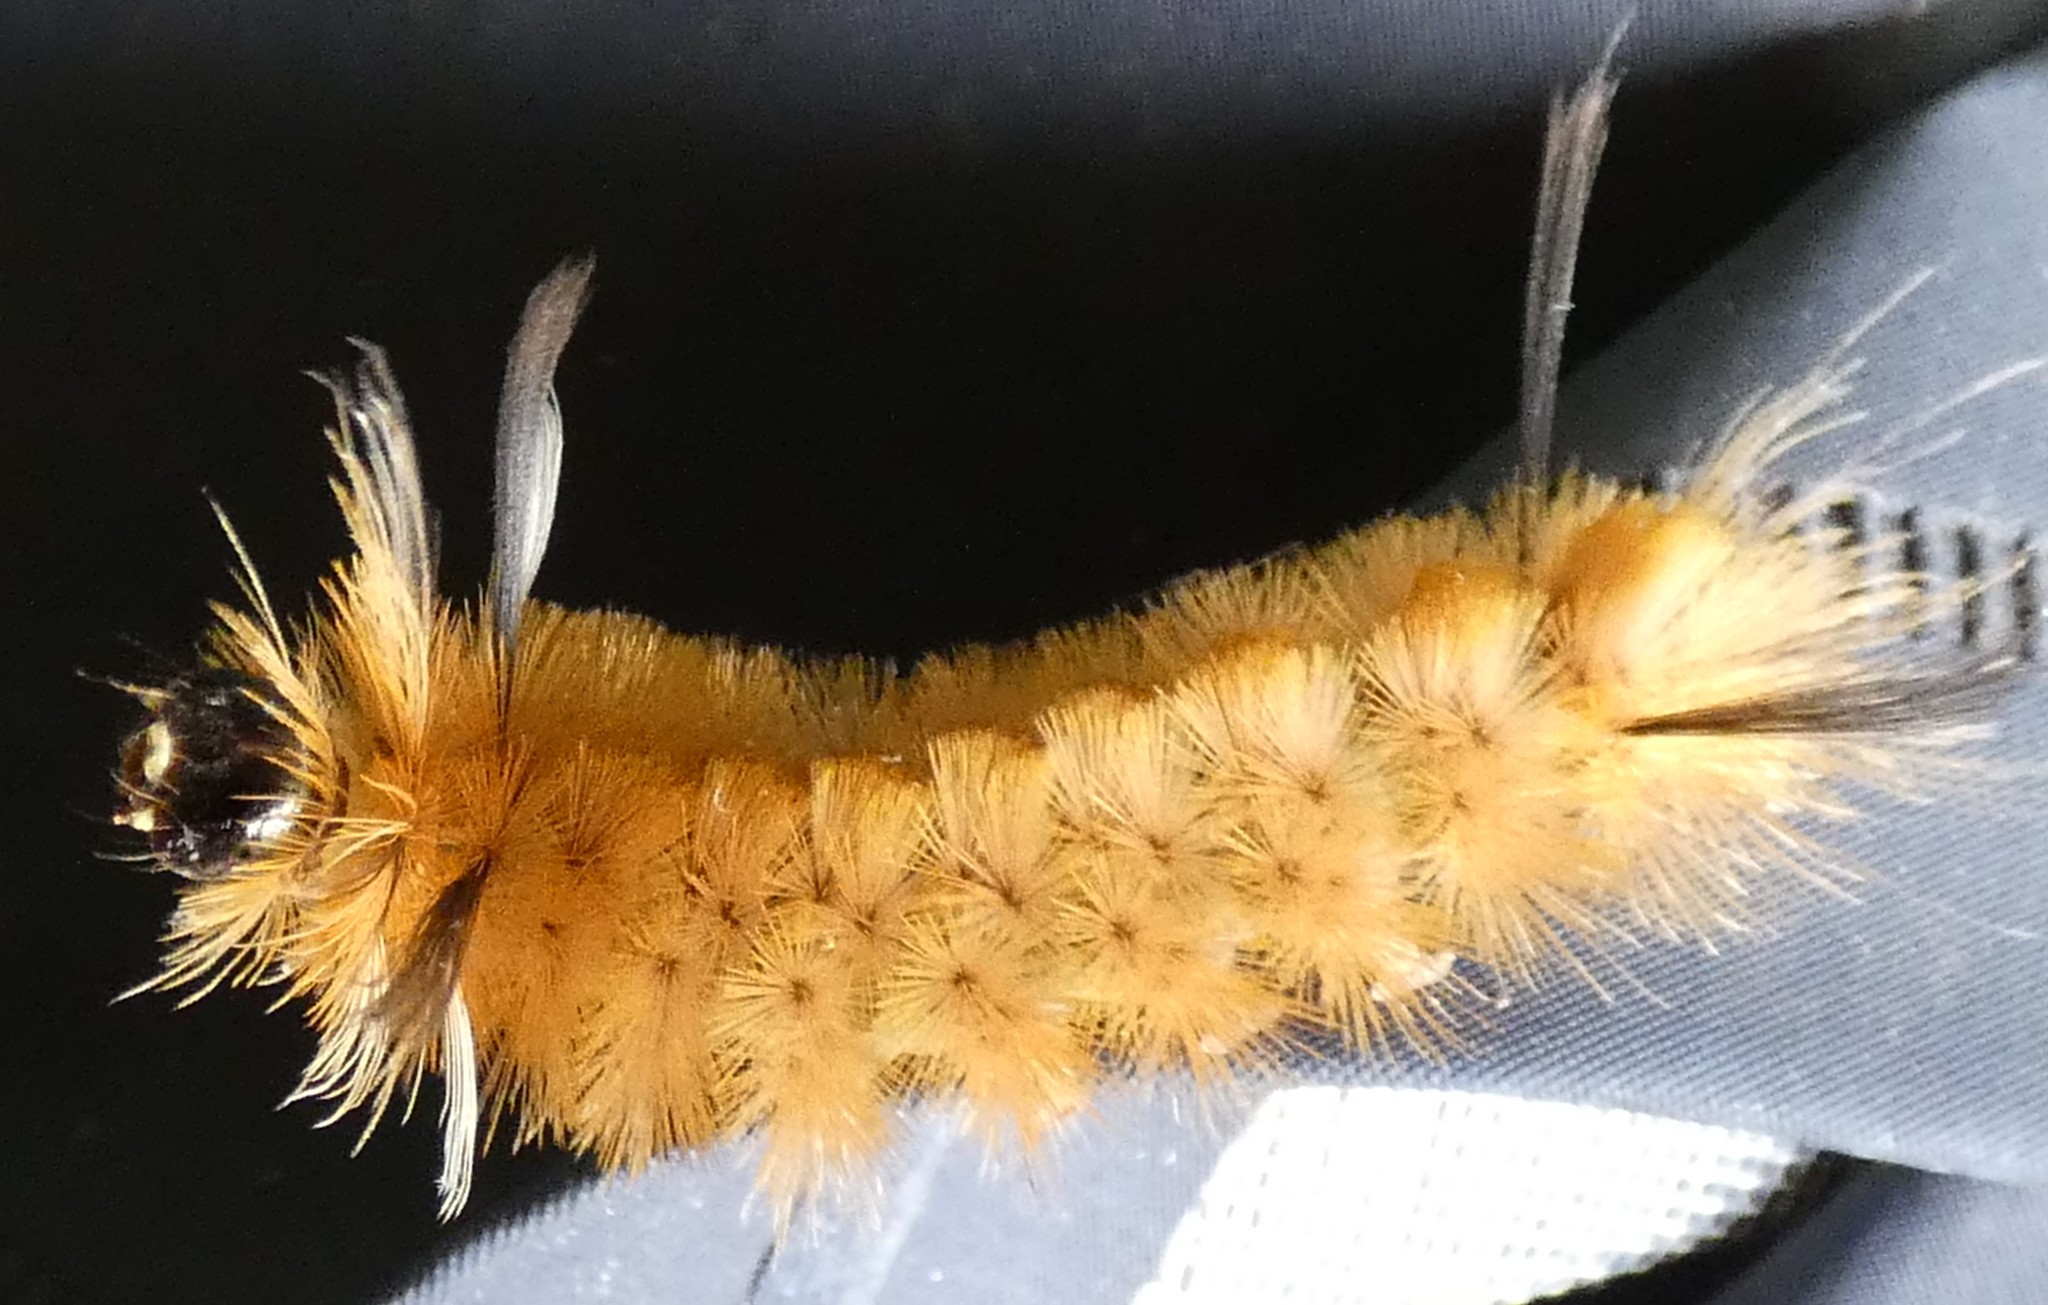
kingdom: Animalia
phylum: Arthropoda
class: Insecta
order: Lepidoptera
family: Erebidae
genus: Halysidota
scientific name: Halysidota tessellaris
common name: Banded tussock moth
